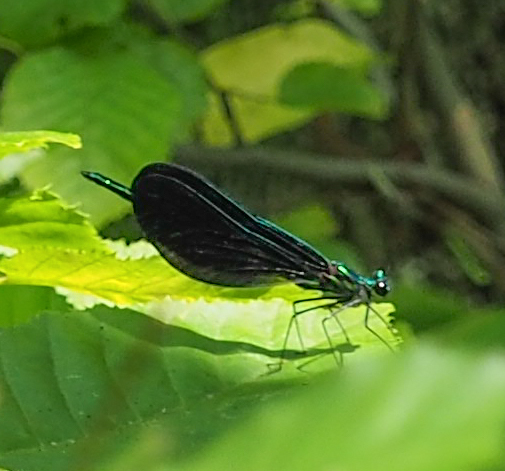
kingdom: Animalia
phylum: Arthropoda
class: Insecta
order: Odonata
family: Calopterygidae
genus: Calopteryx
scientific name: Calopteryx maculata
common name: Ebony jewelwing
